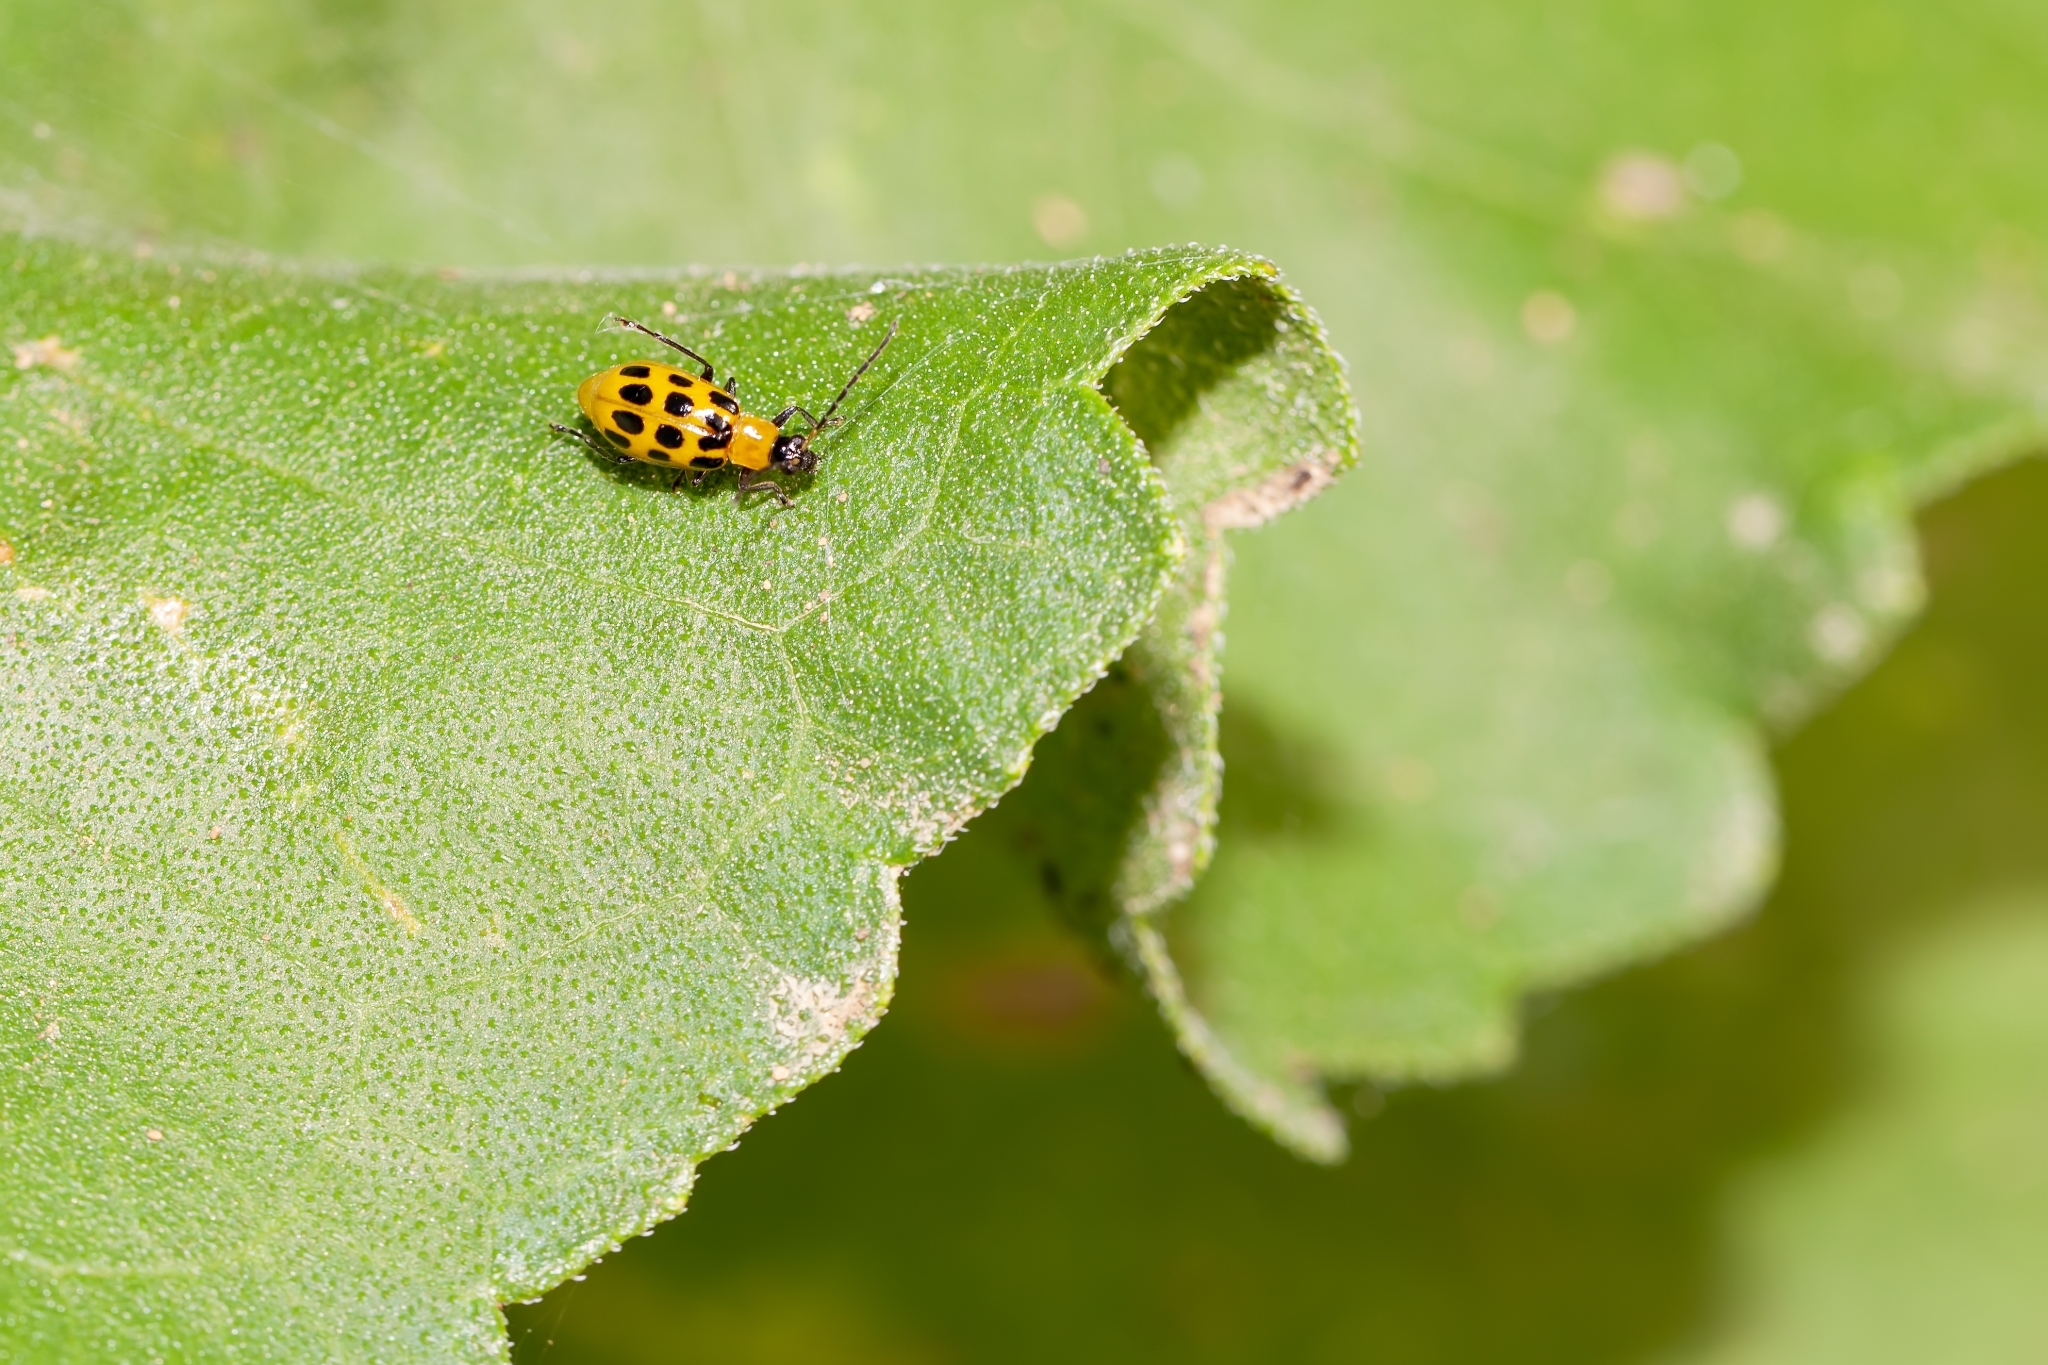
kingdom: Animalia
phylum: Arthropoda
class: Insecta
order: Coleoptera
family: Chrysomelidae
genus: Diabrotica
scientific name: Diabrotica undecimpunctata
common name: Spotted cucumber beetle
